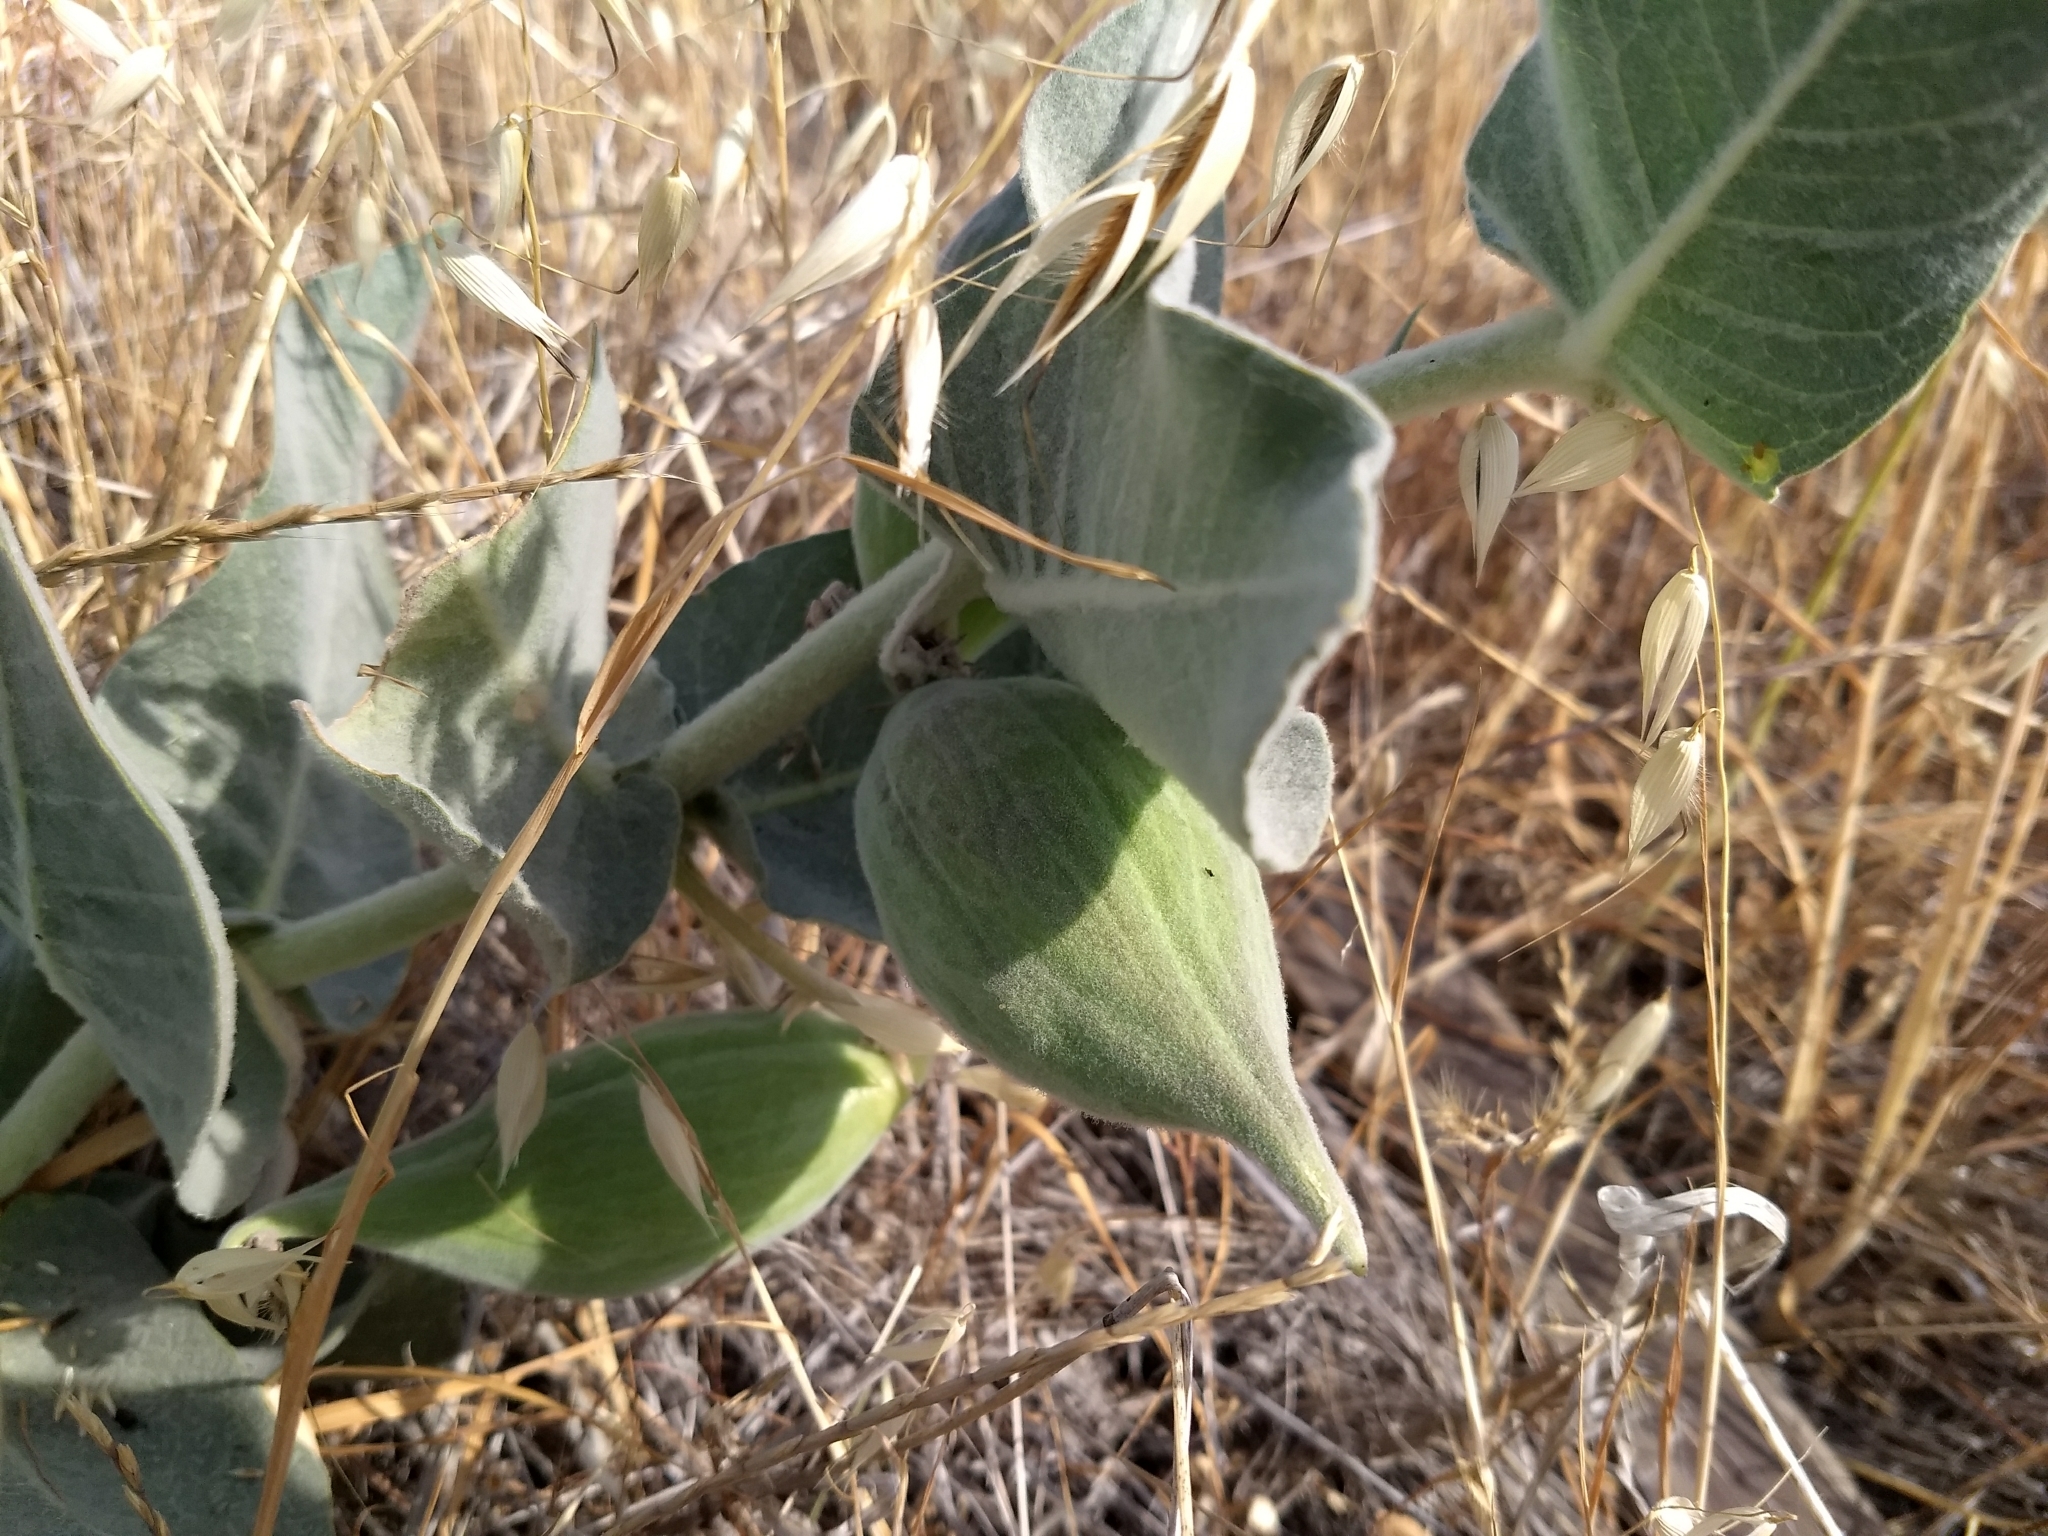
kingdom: Plantae
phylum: Tracheophyta
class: Magnoliopsida
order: Gentianales
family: Apocynaceae
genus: Asclepias
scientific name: Asclepias californica
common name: California milkweed
